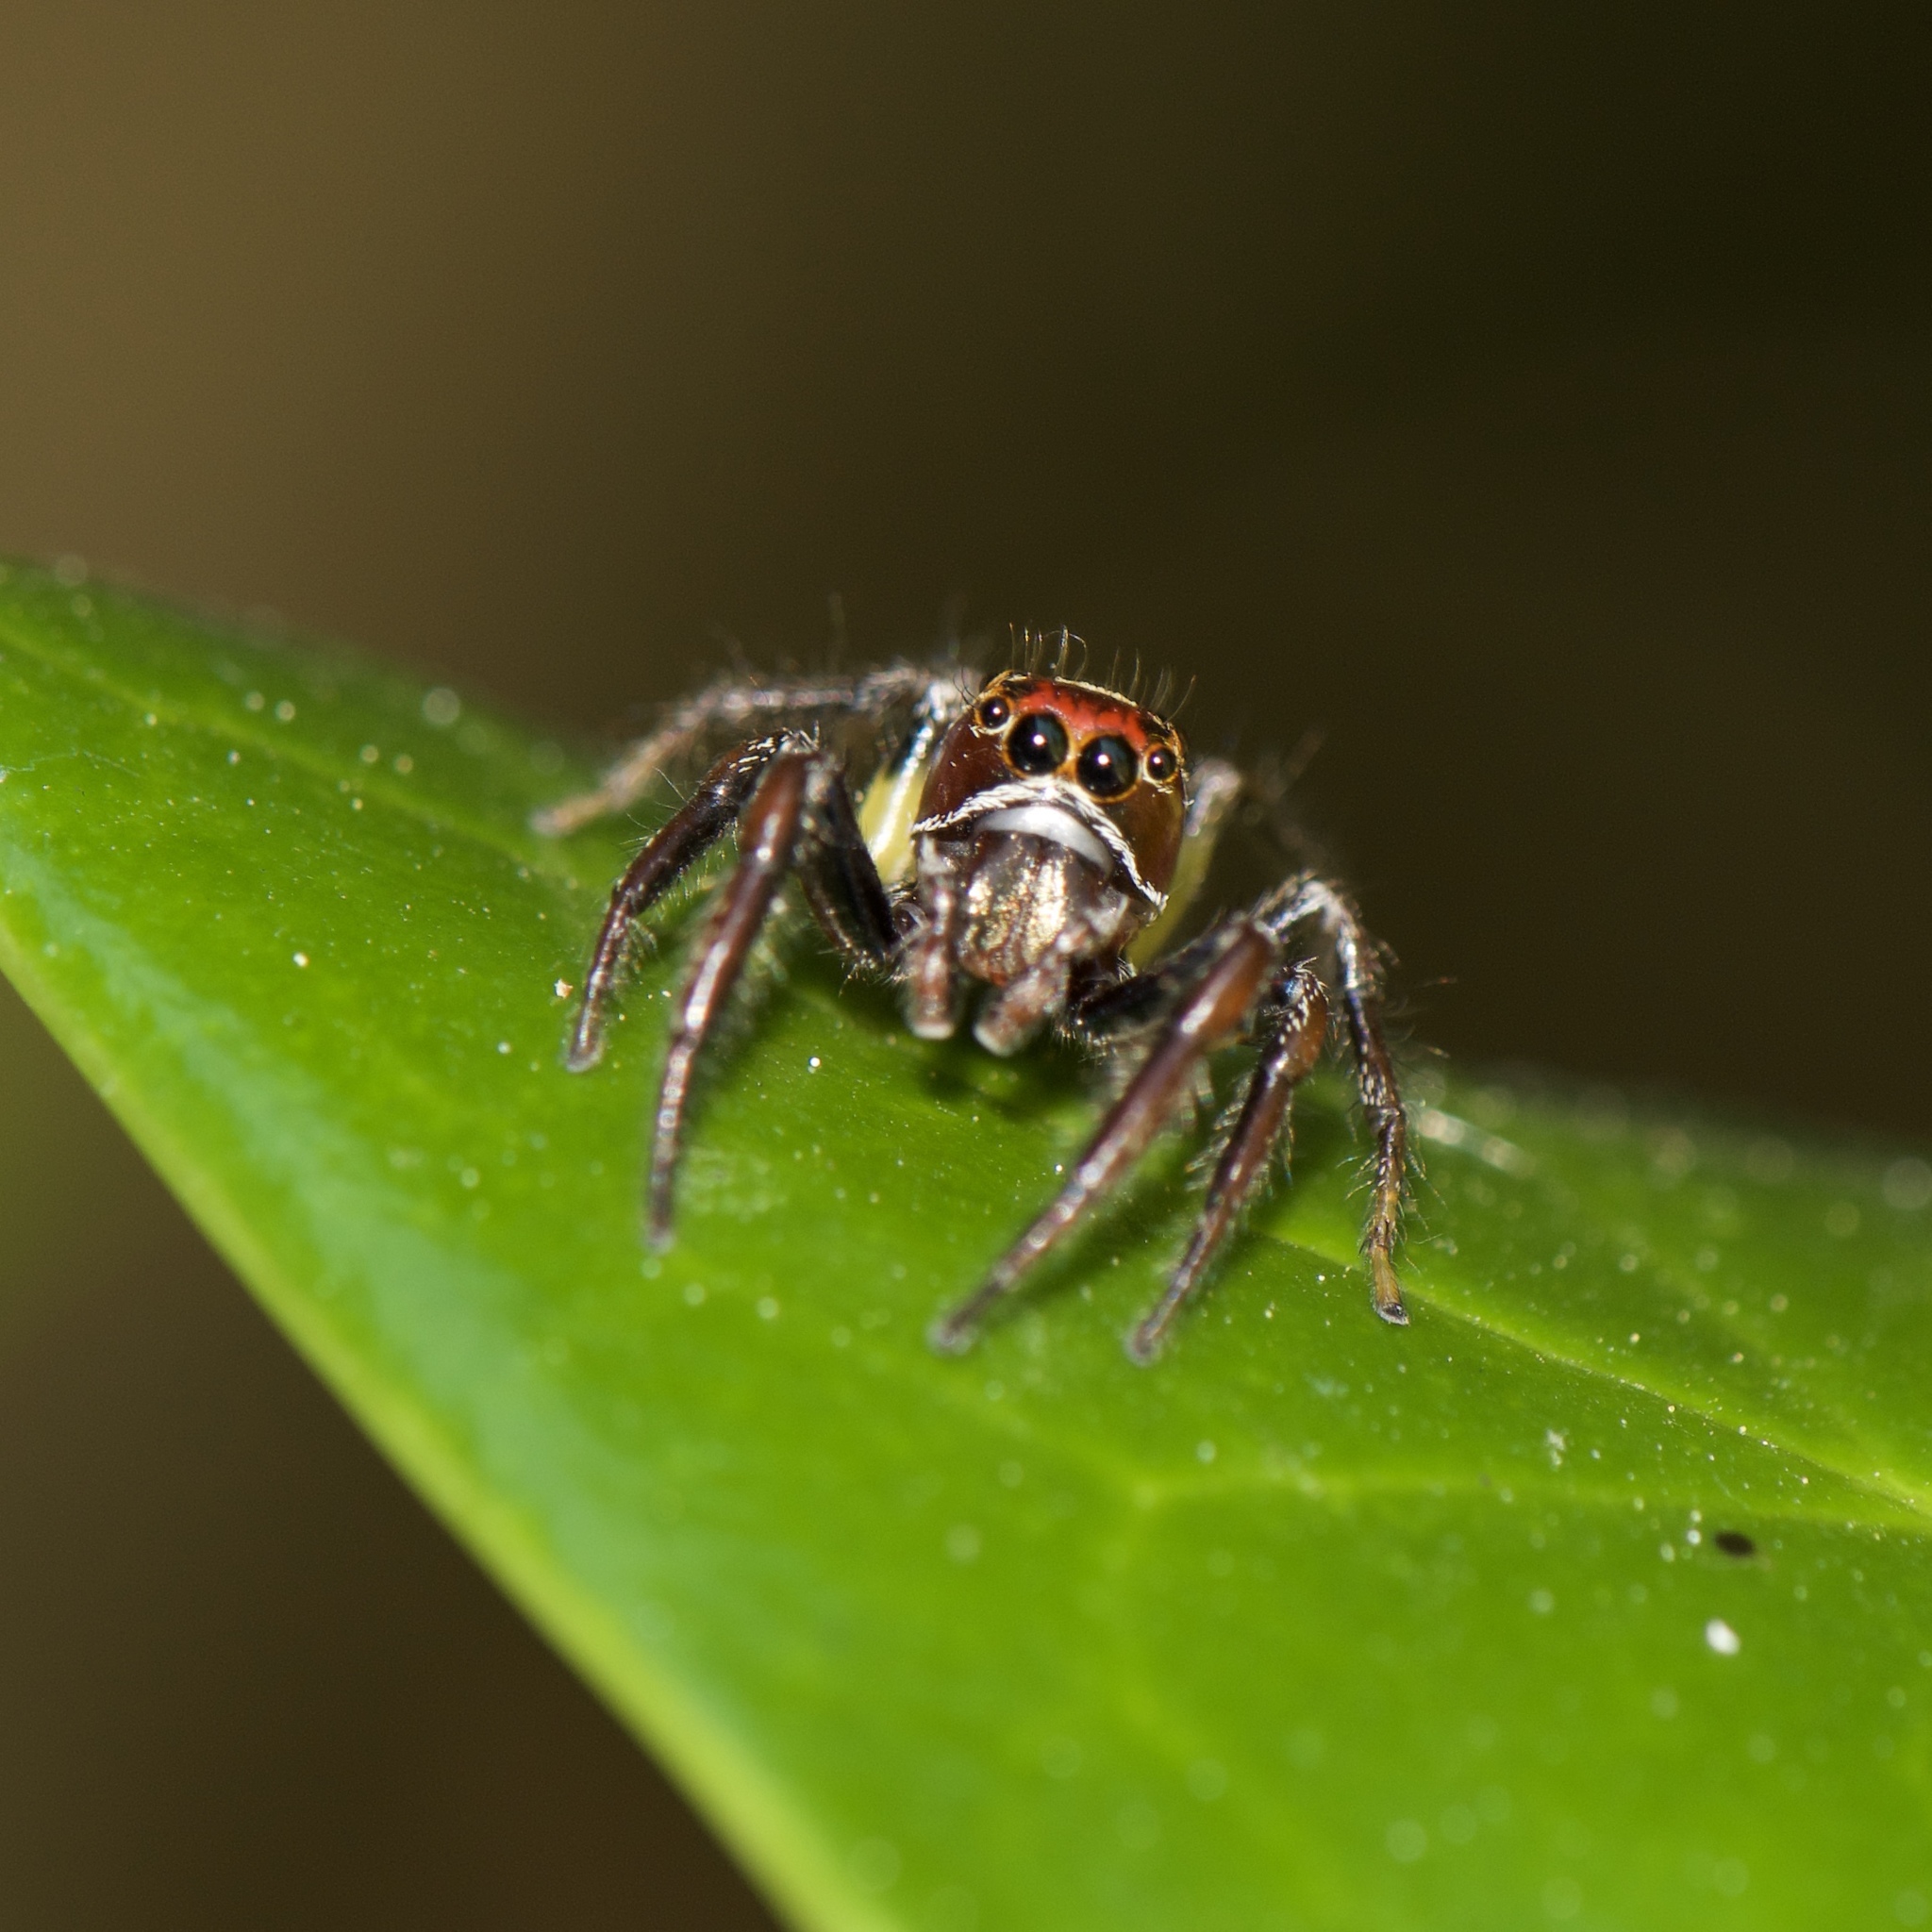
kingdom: Animalia
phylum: Arthropoda
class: Arachnida
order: Araneae
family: Salticidae
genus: Colonus
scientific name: Colonus sylvanus
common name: Jumping spiders
